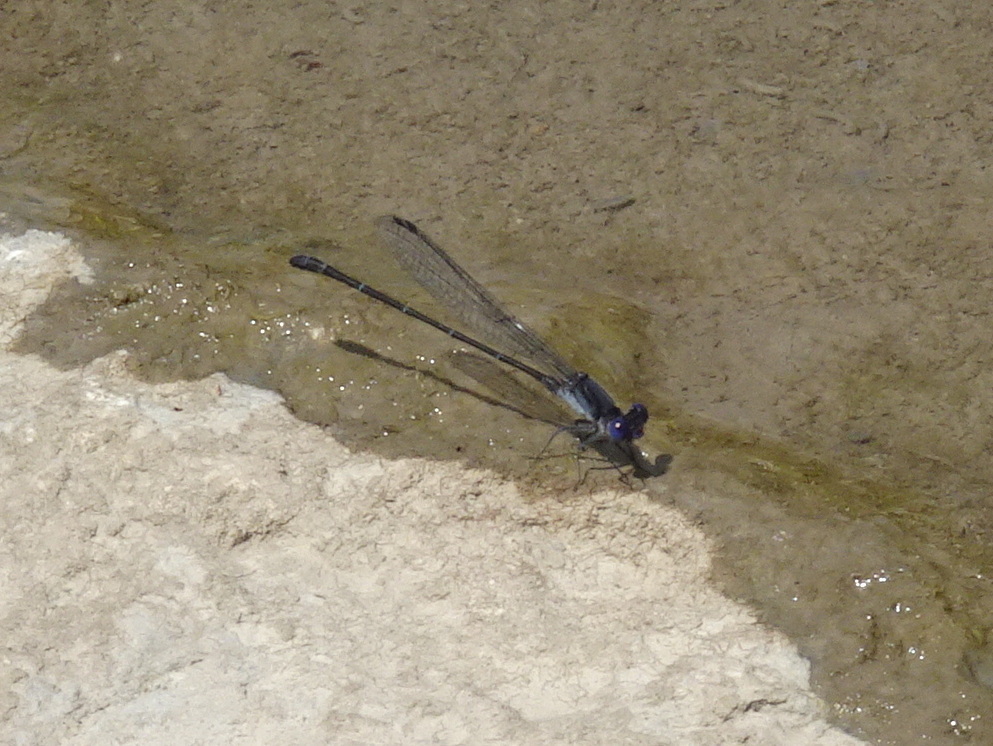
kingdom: Animalia
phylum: Arthropoda
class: Insecta
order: Odonata
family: Coenagrionidae
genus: Argia
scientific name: Argia translata
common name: Dusky dancer
